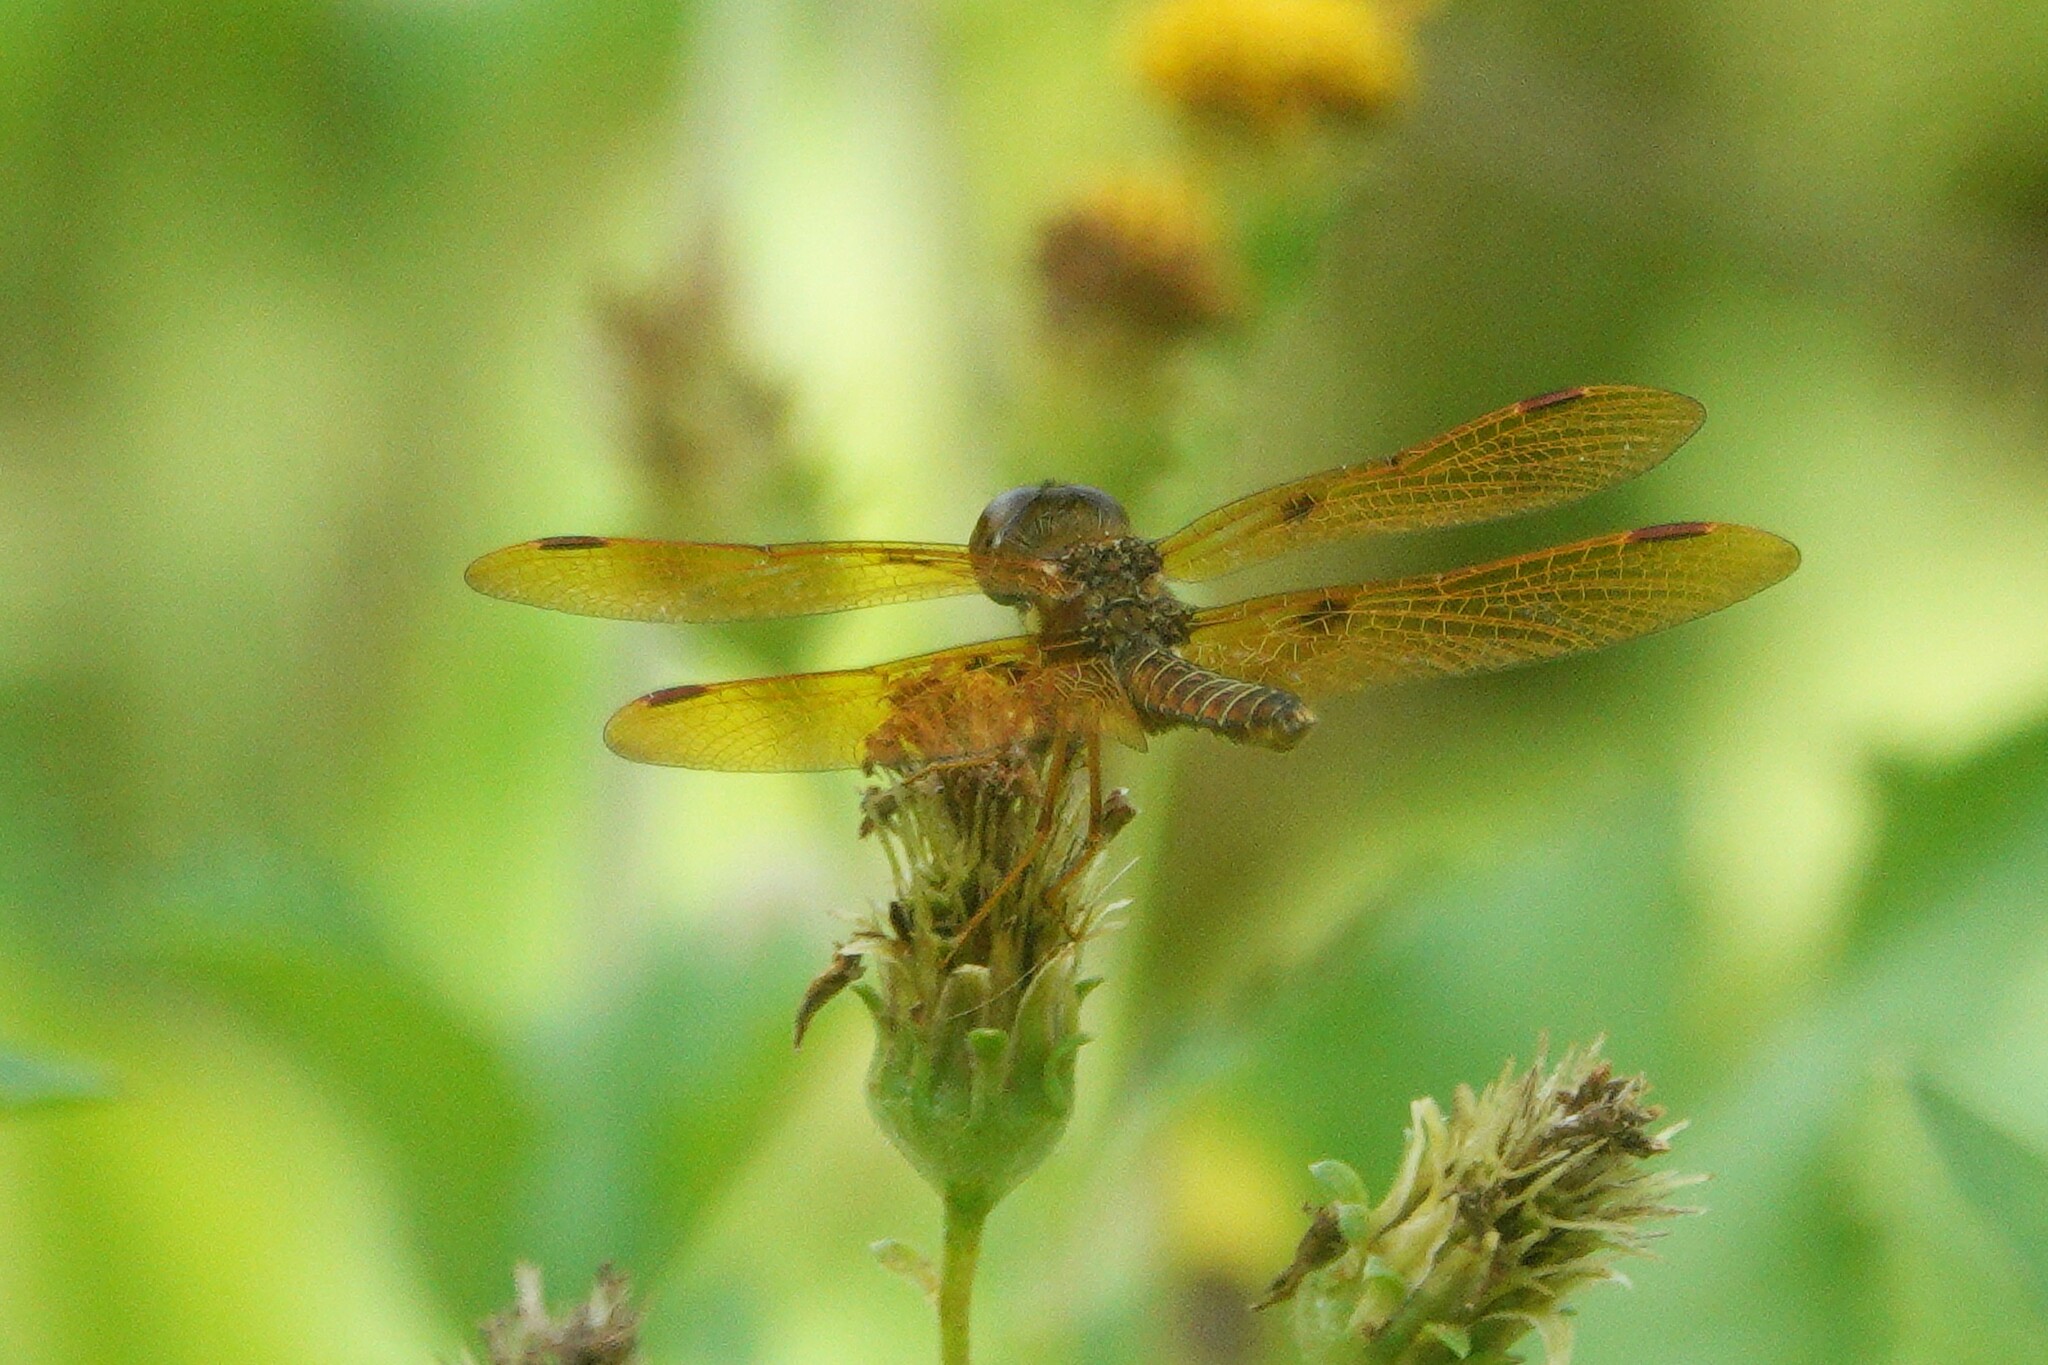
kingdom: Animalia
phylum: Arthropoda
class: Insecta
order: Odonata
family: Libellulidae
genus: Perithemis
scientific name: Perithemis tenera
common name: Eastern amberwing
